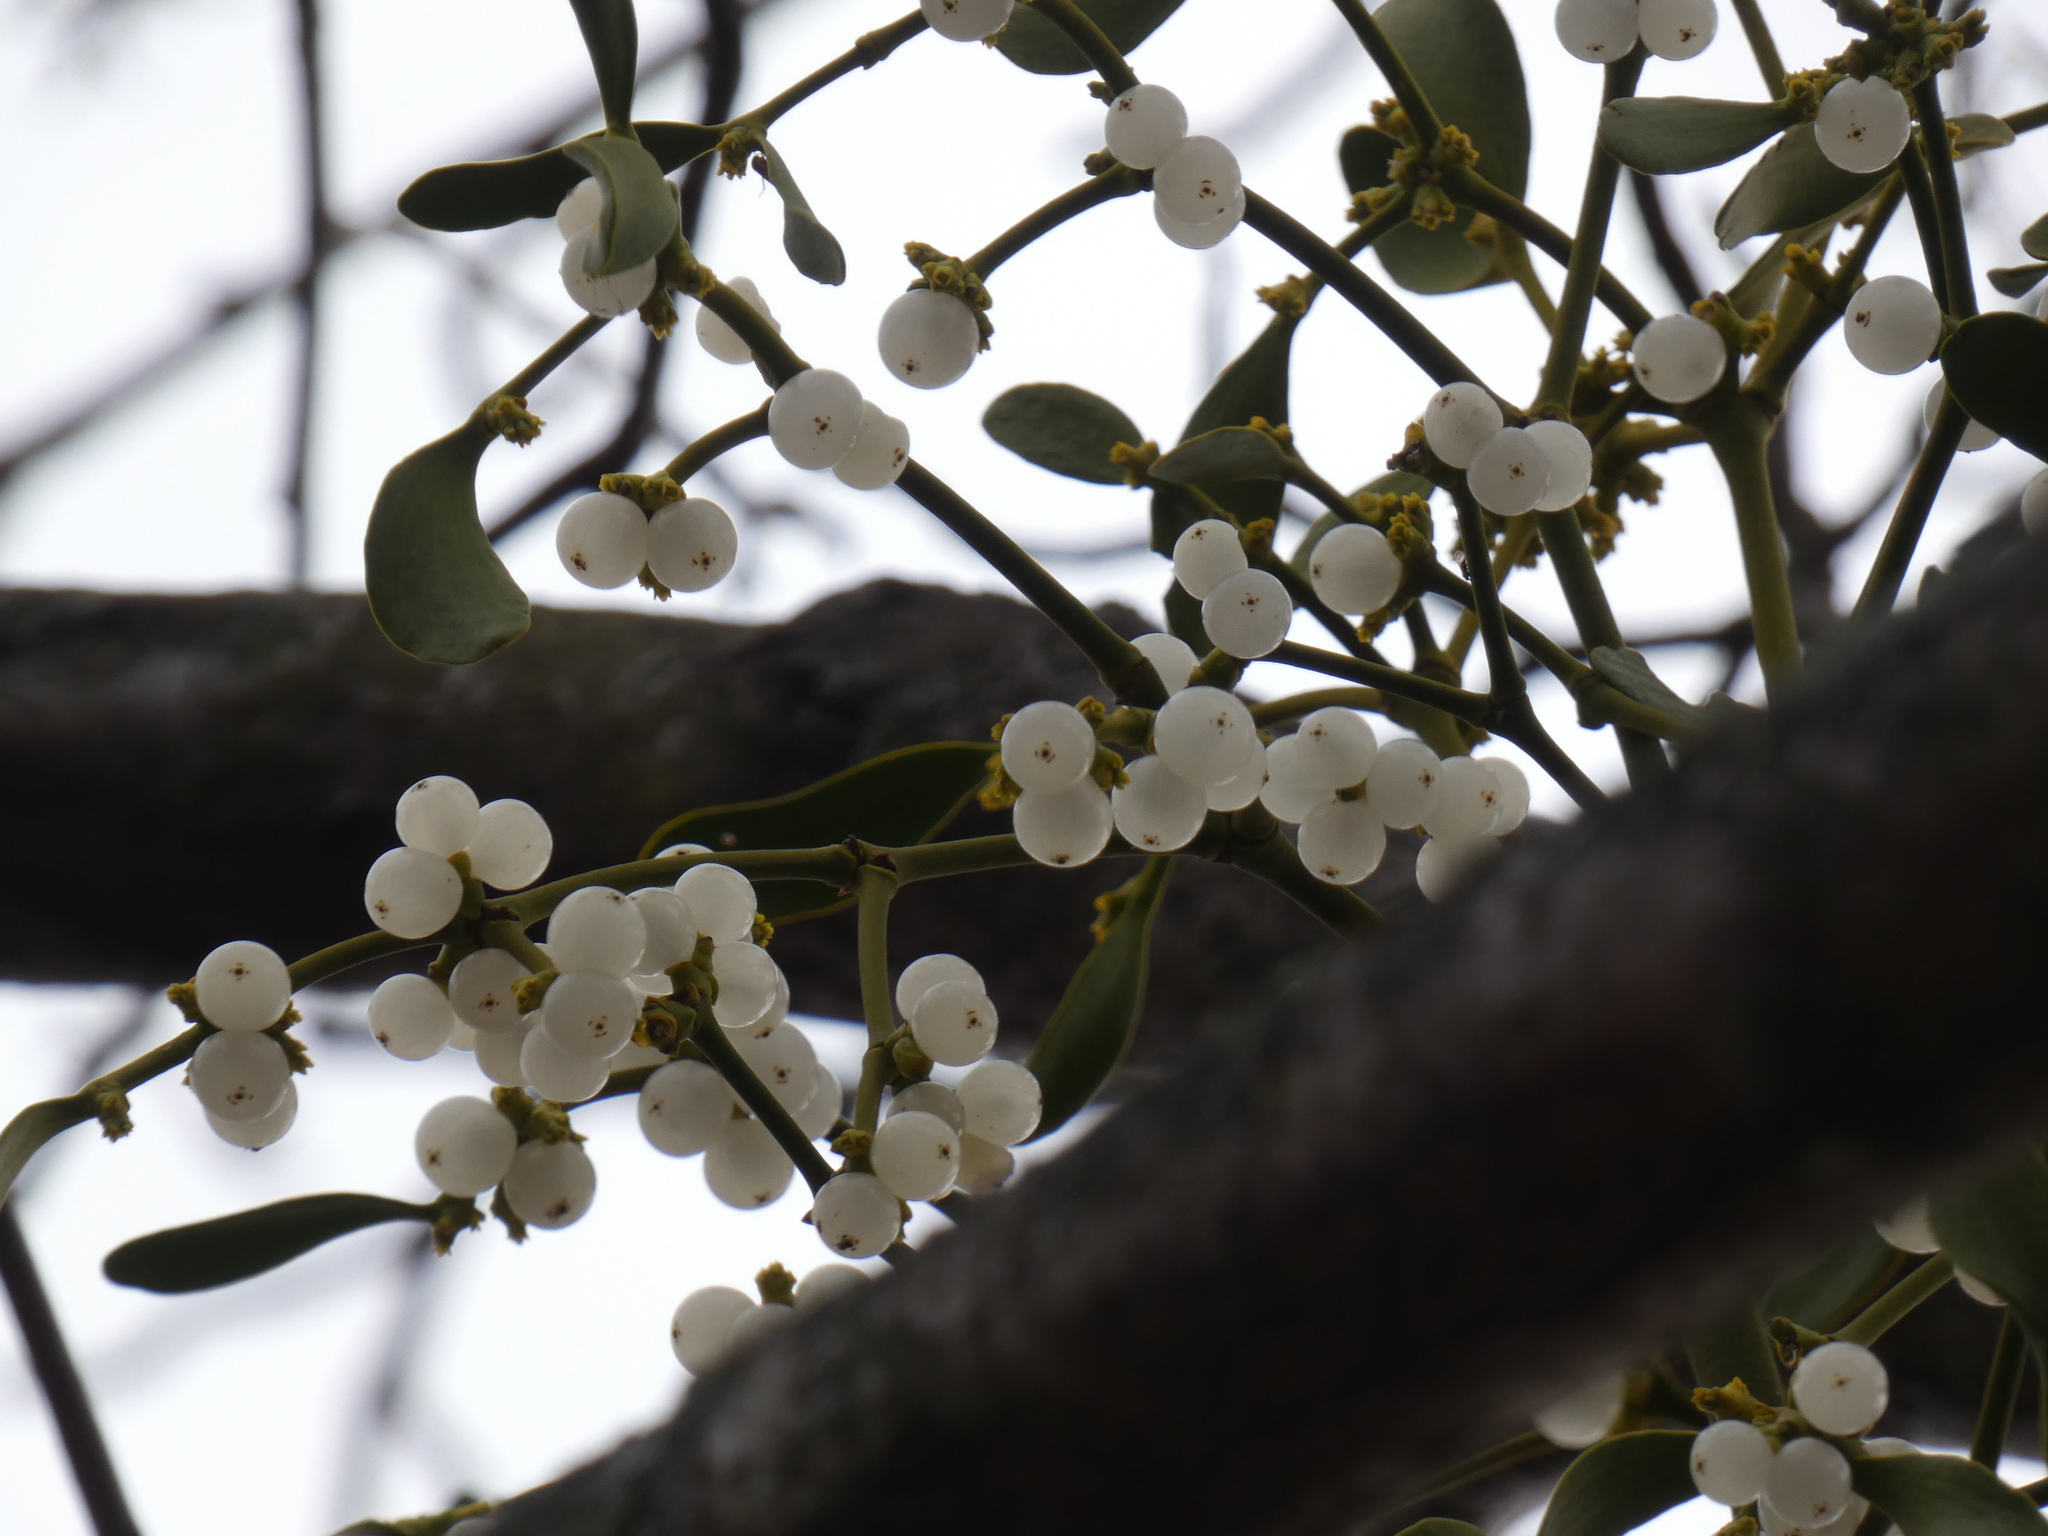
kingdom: Plantae
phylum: Tracheophyta
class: Magnoliopsida
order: Santalales
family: Viscaceae
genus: Viscum
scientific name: Viscum album
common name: Mistletoe
